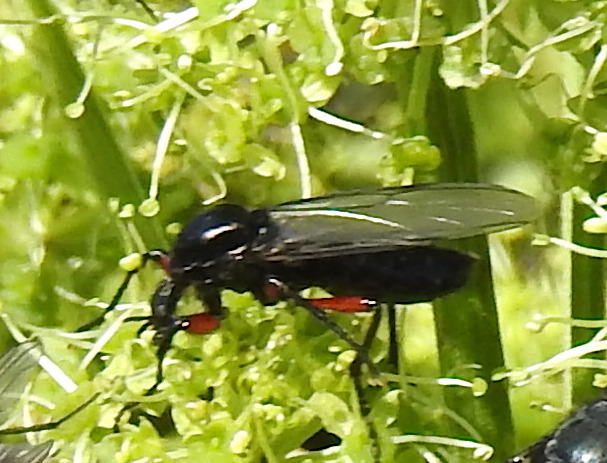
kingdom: Animalia
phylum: Arthropoda
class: Insecta
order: Diptera
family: Bibionidae
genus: Bibio
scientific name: Bibio pomonae
